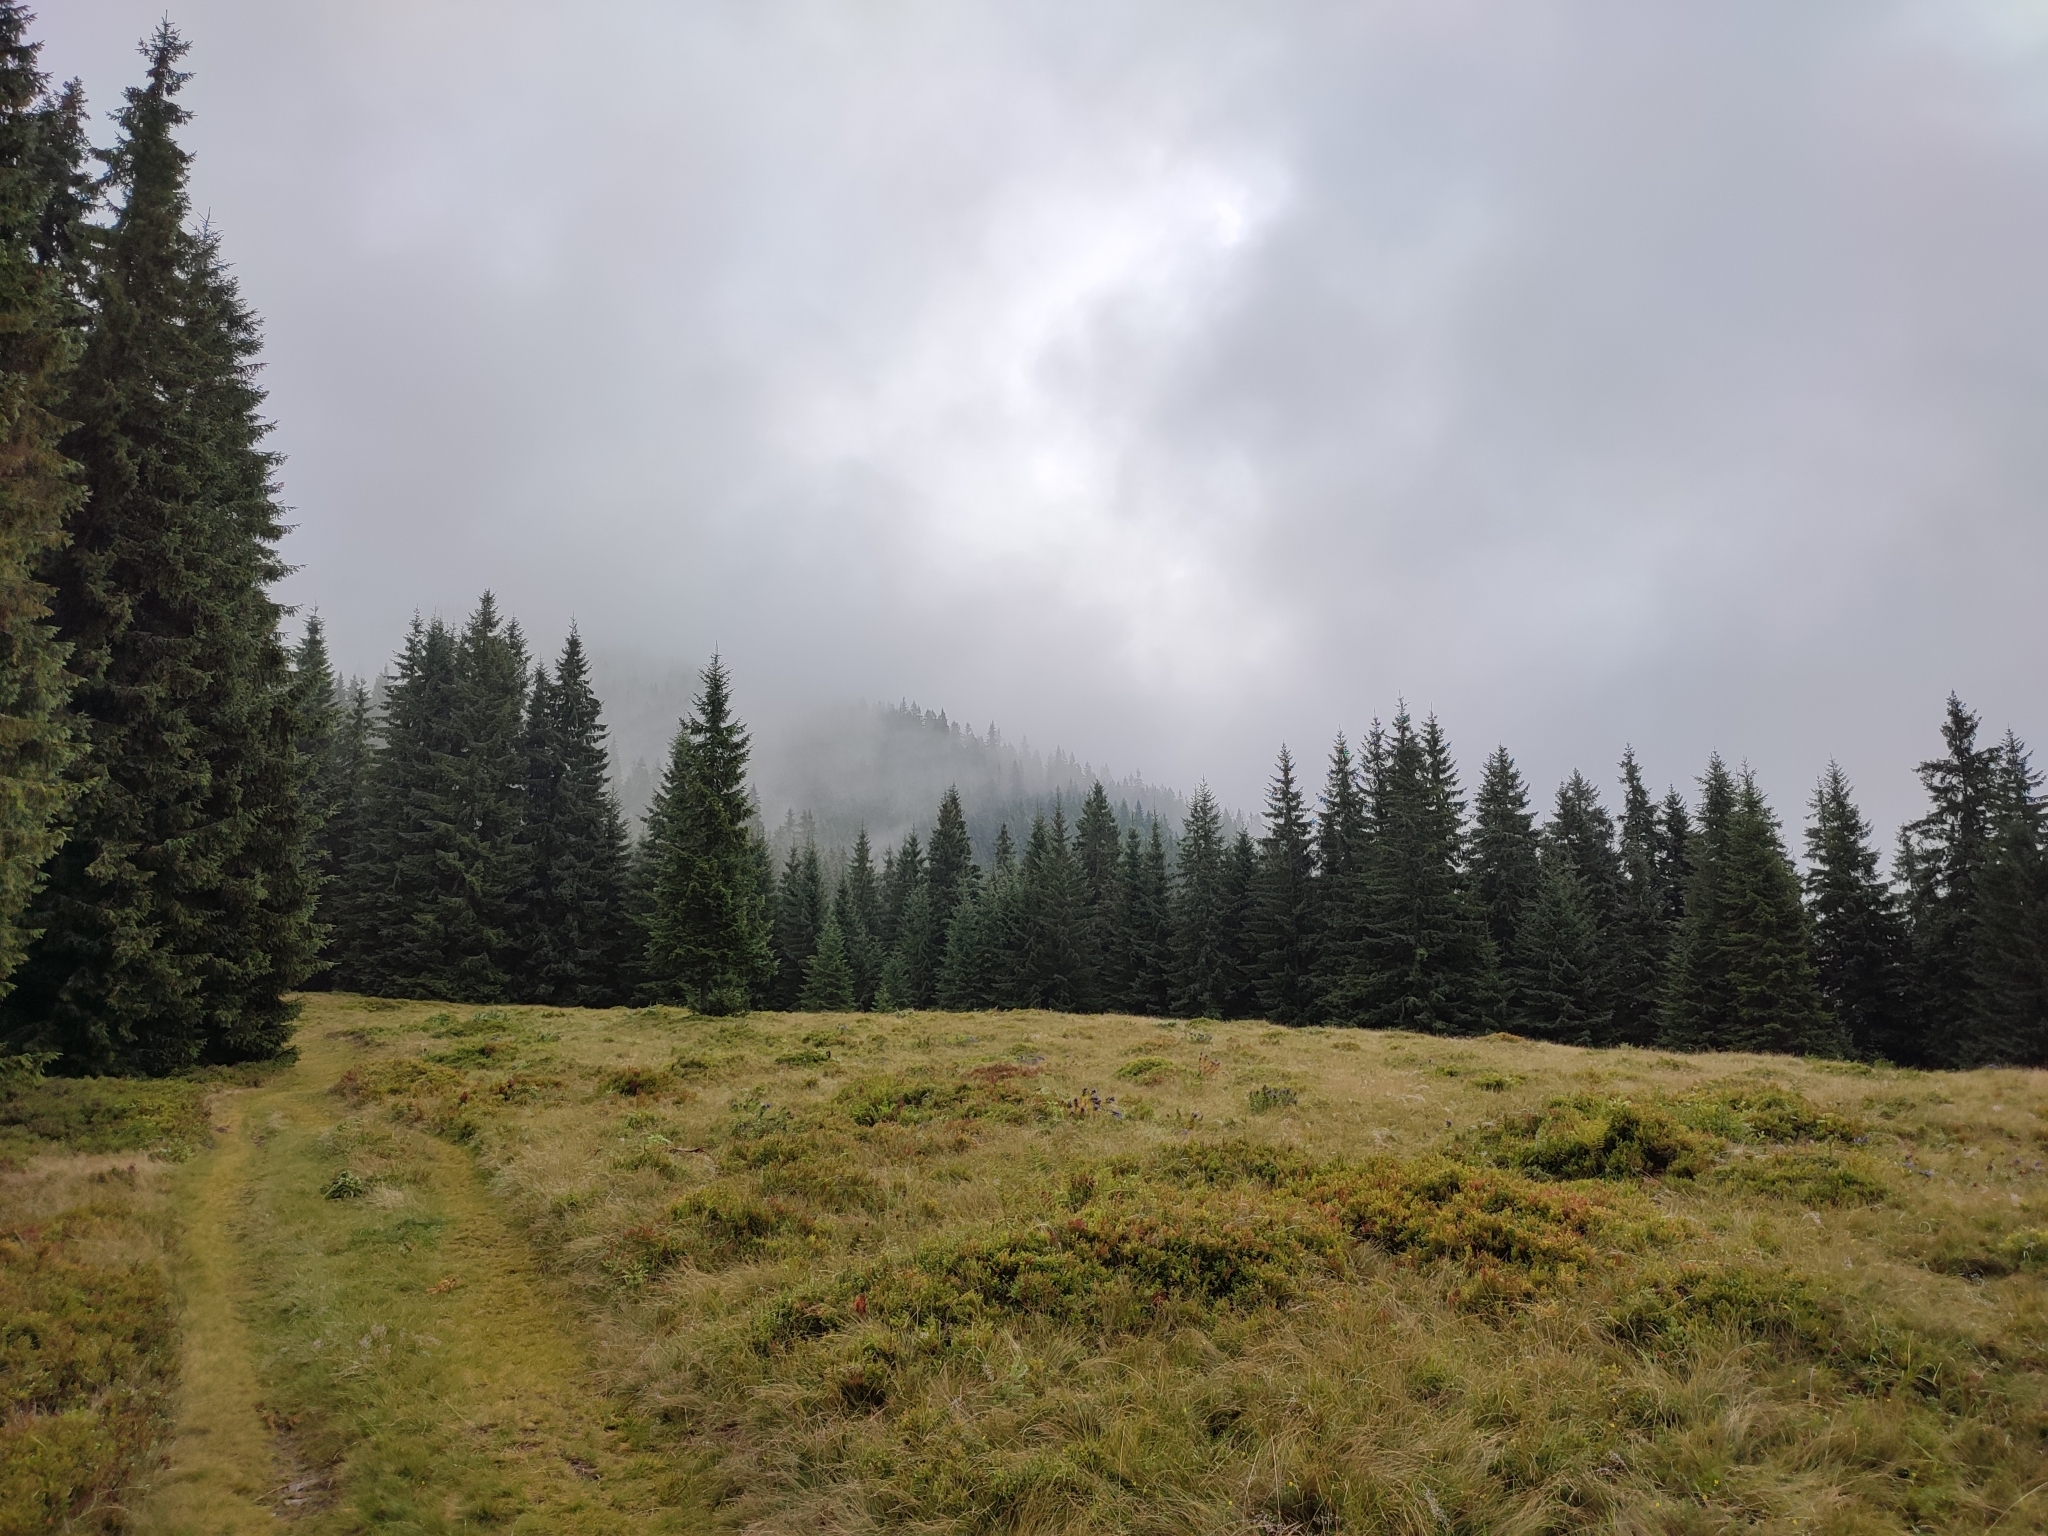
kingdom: Plantae
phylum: Tracheophyta
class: Pinopsida
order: Pinales
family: Pinaceae
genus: Picea
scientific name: Picea abies
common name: Norway spruce
